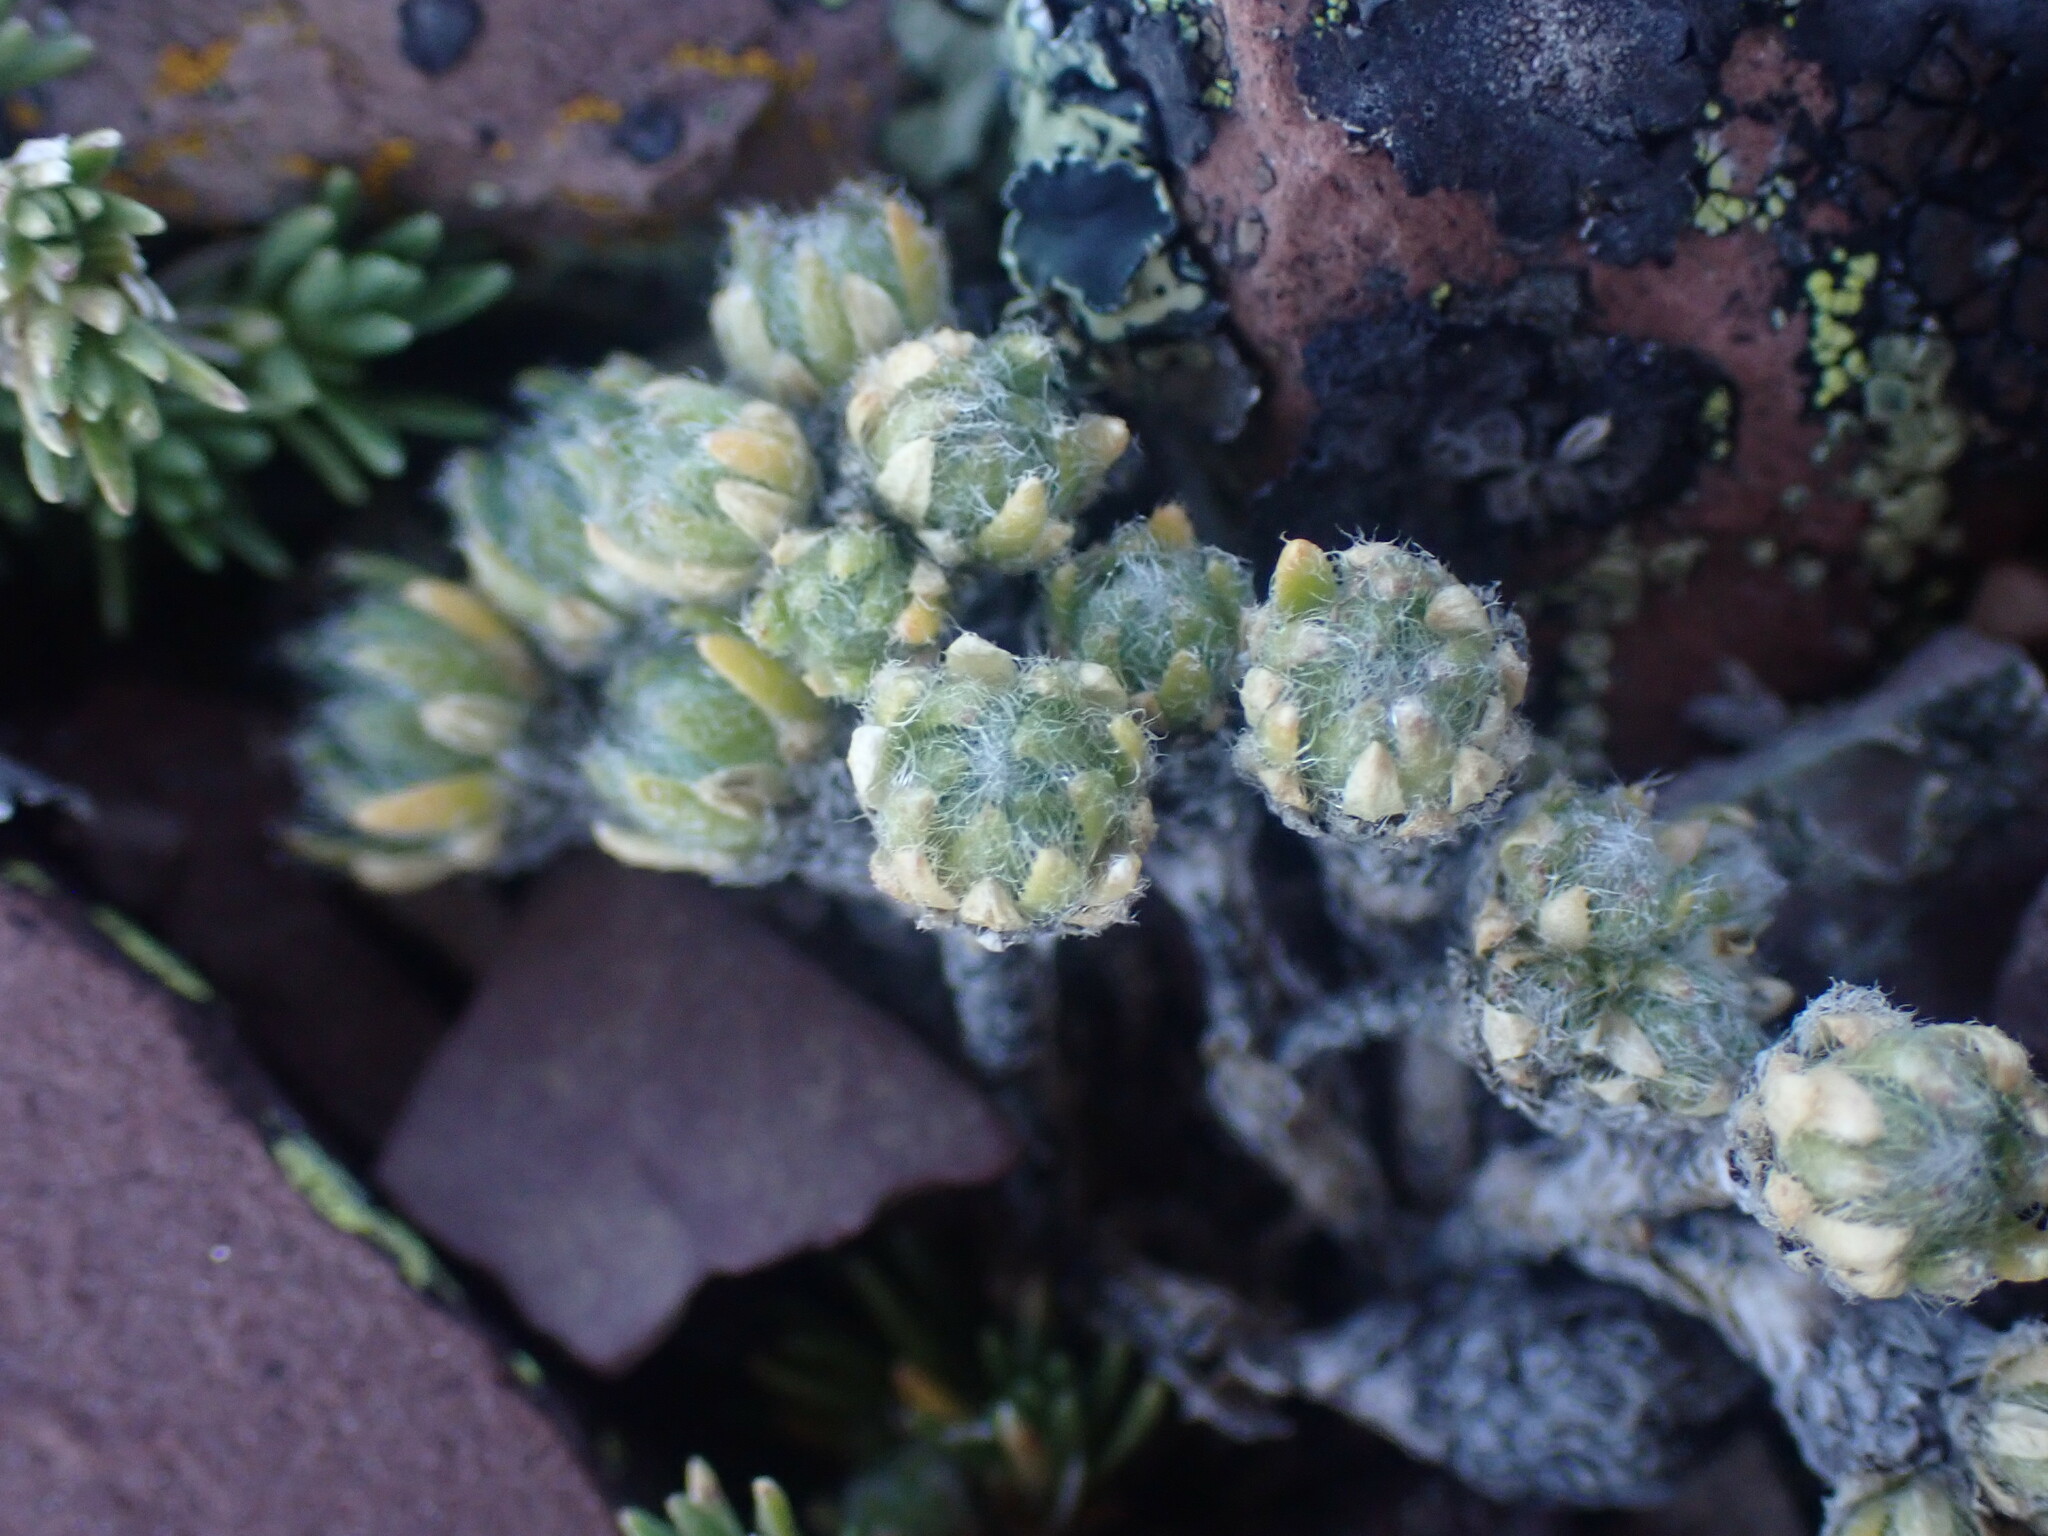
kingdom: Plantae
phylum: Tracheophyta
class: Magnoliopsida
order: Brassicales
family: Brassicaceae
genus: Draba
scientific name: Draba oligosperma
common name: Few-seed draba
